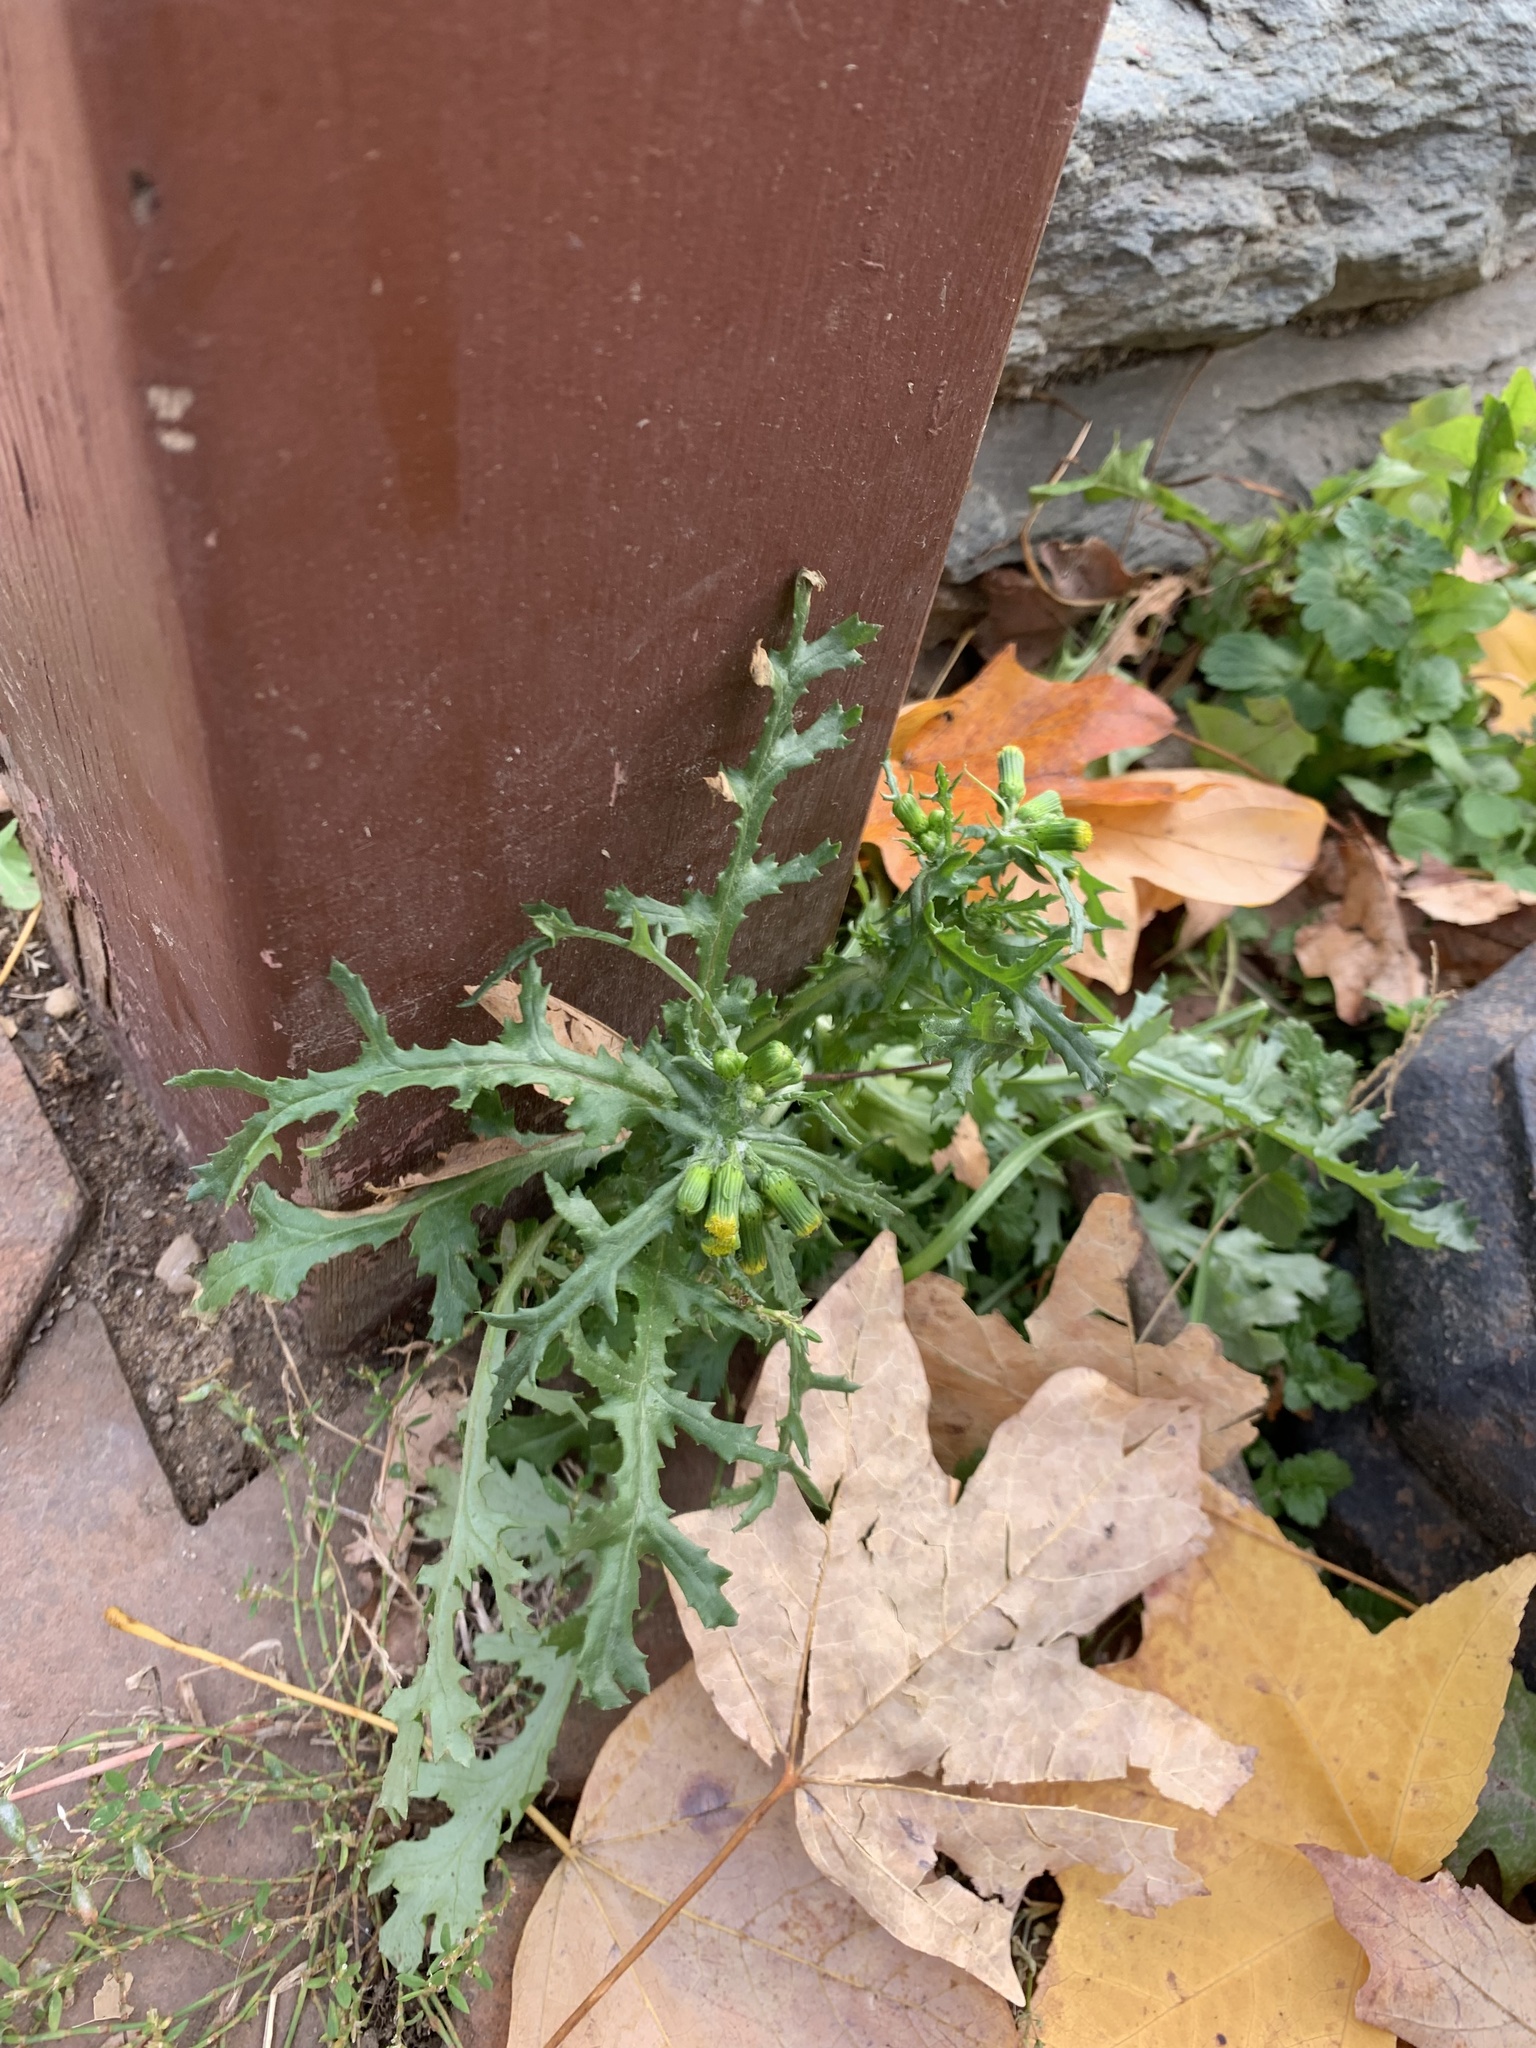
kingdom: Plantae
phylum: Tracheophyta
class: Magnoliopsida
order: Asterales
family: Asteraceae
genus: Senecio
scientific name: Senecio vulgaris
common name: Old-man-in-the-spring
